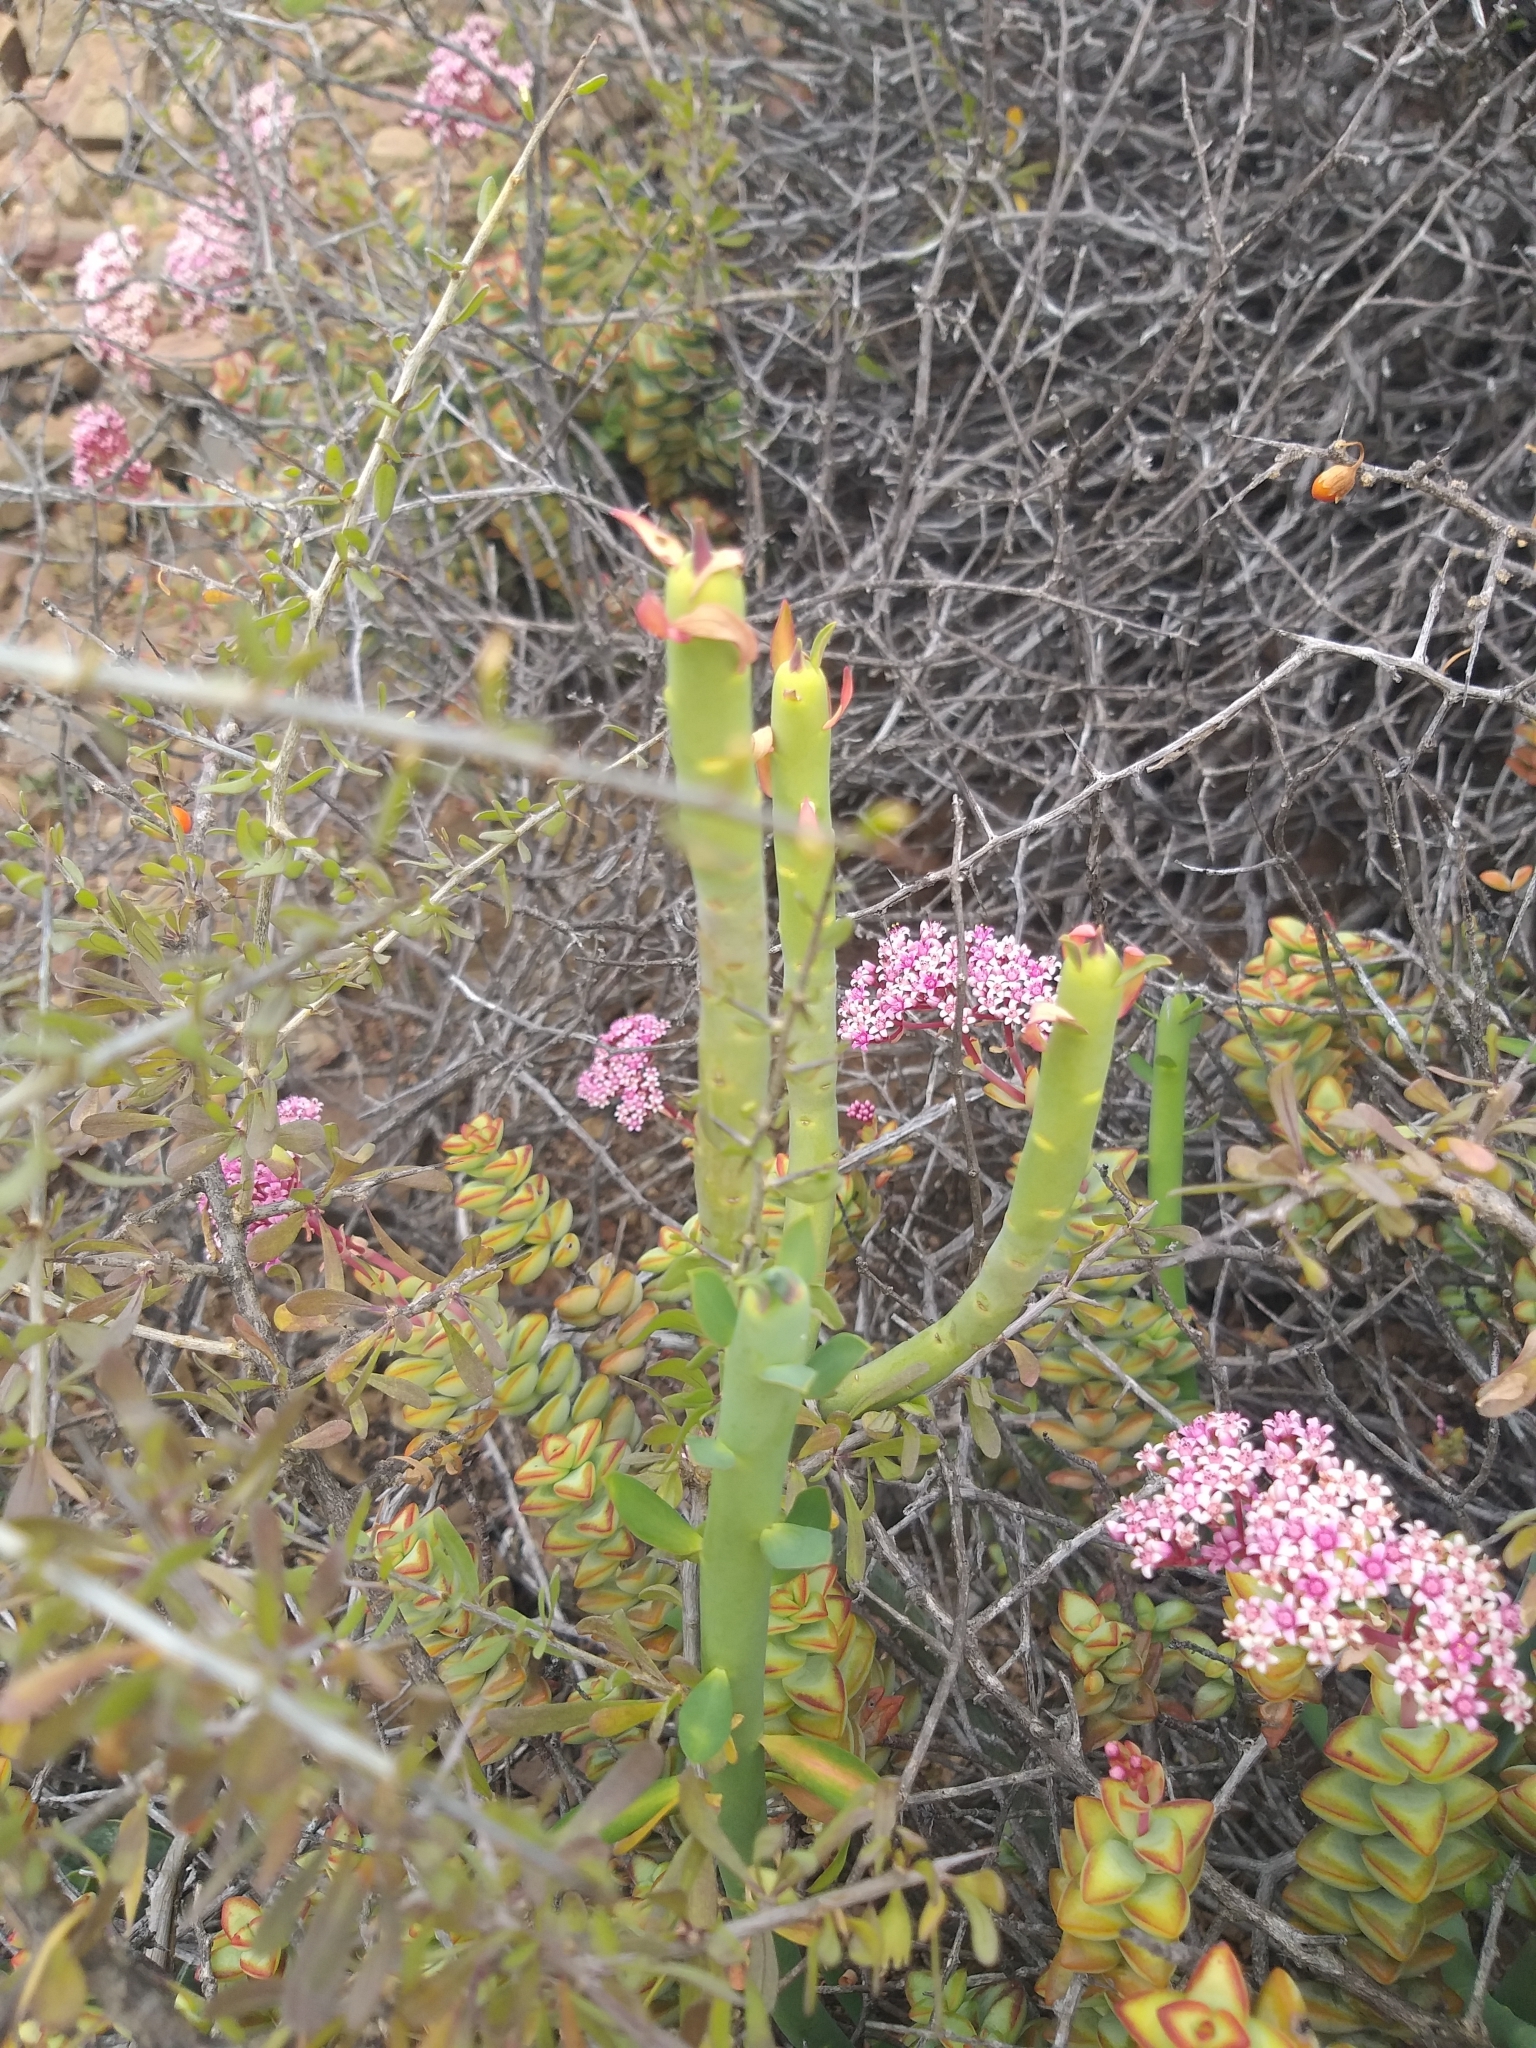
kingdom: Plantae
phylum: Tracheophyta
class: Magnoliopsida
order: Malpighiales
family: Euphorbiaceae
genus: Euphorbia
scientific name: Euphorbia mauritanica
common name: Jackal's-food
